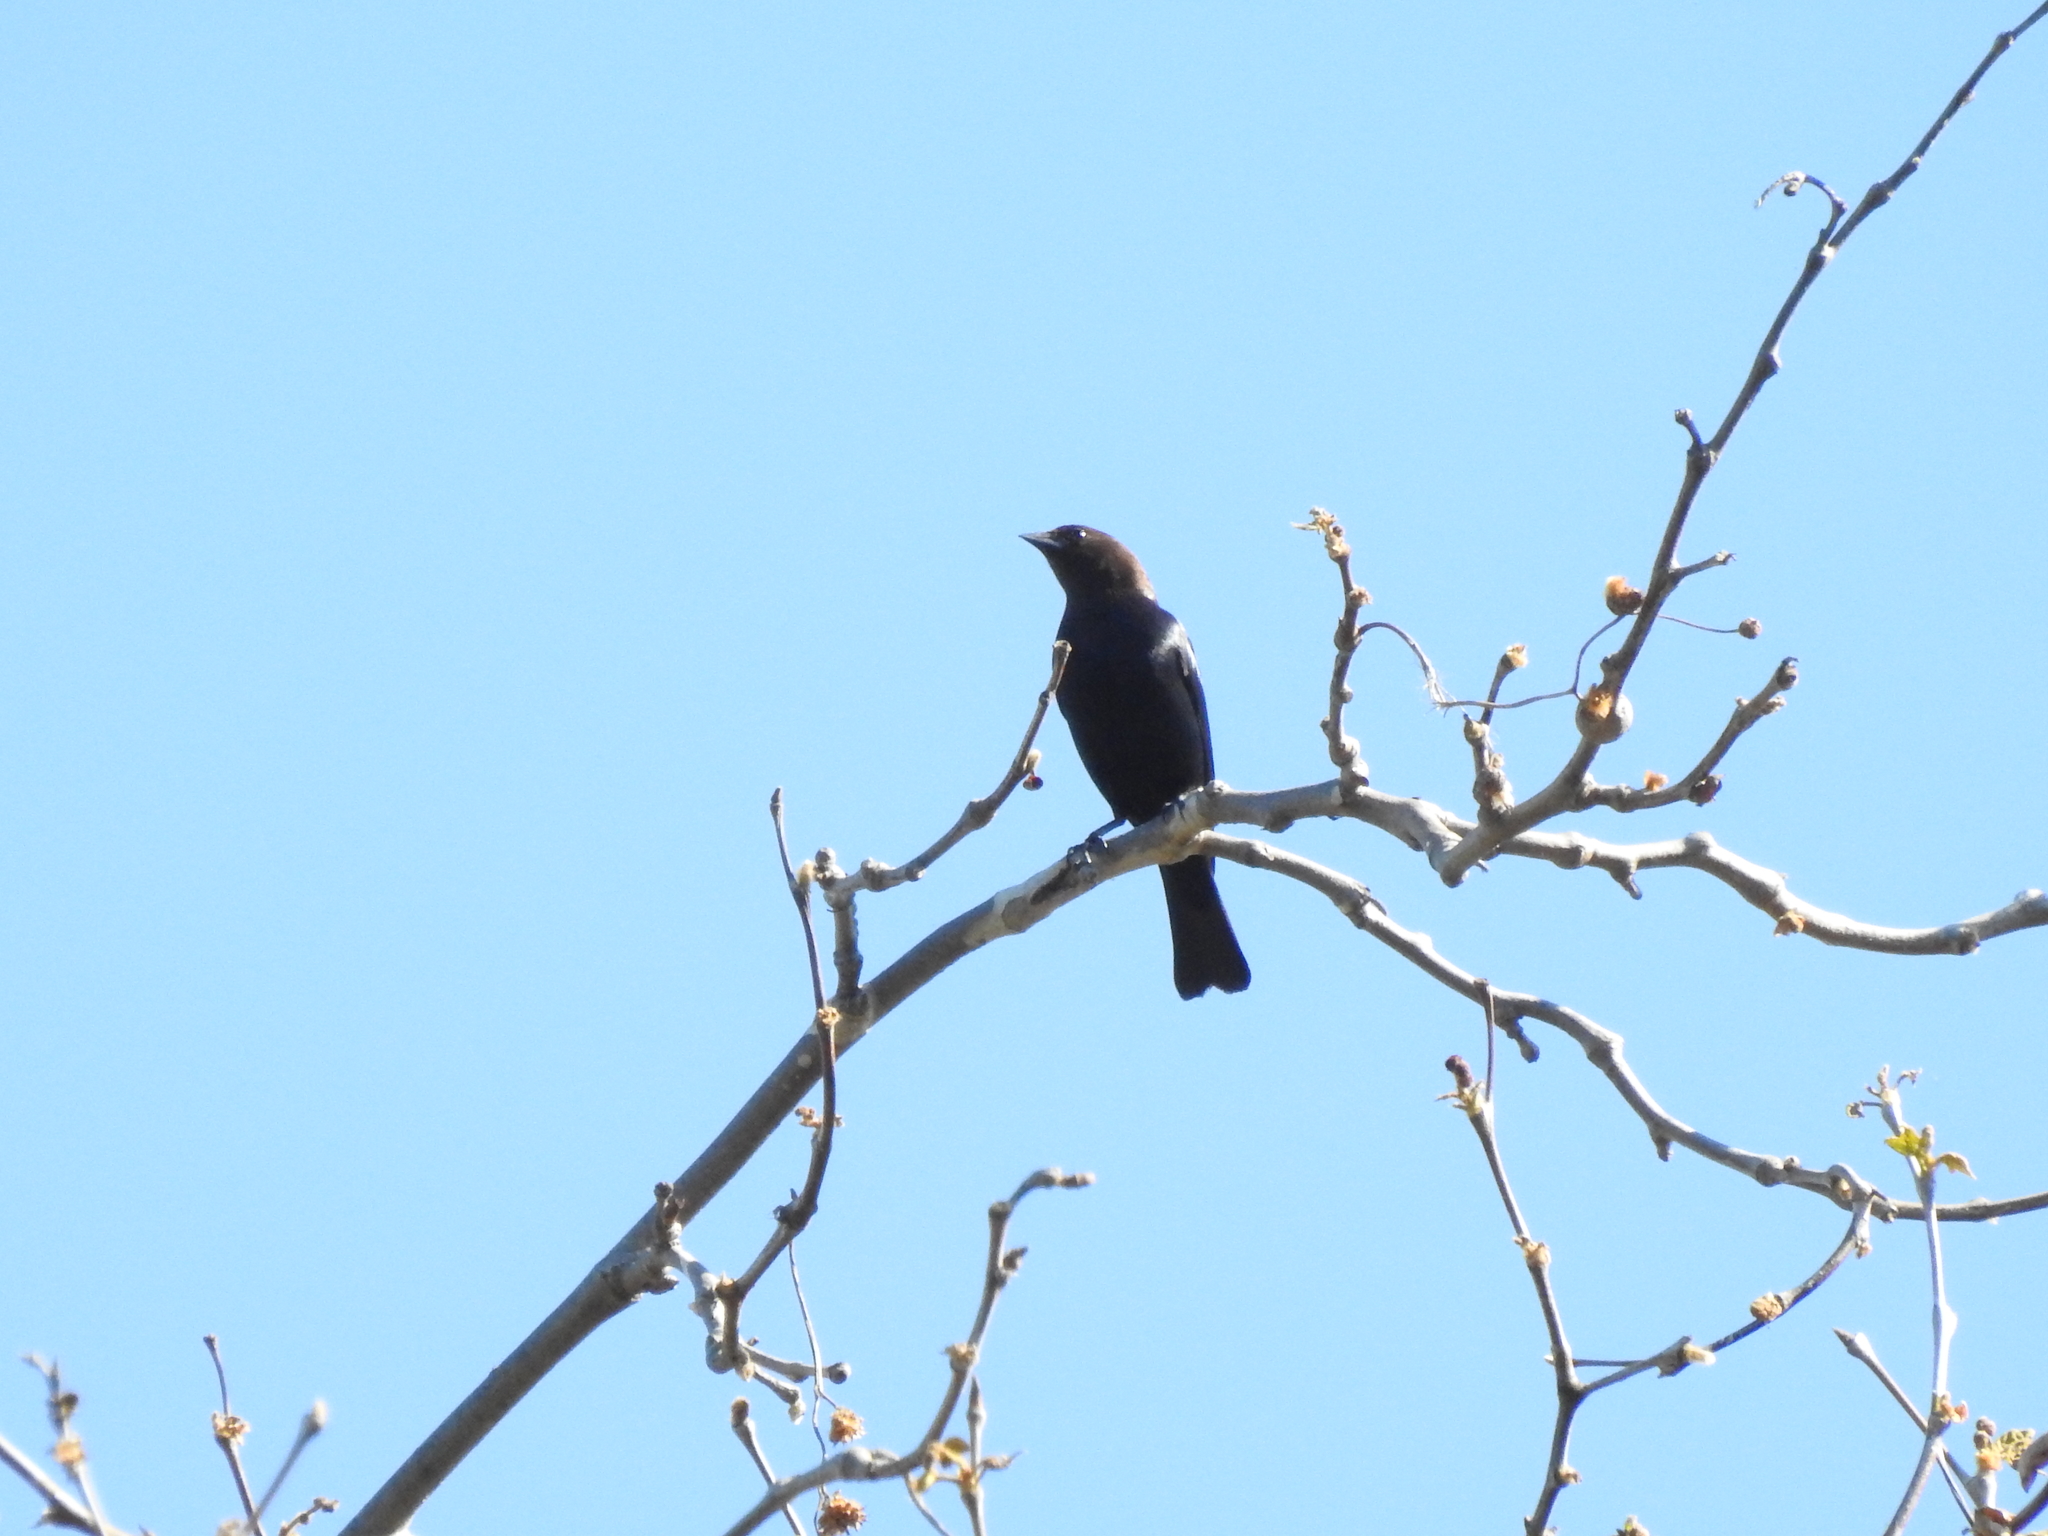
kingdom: Animalia
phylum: Chordata
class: Aves
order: Passeriformes
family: Icteridae
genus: Molothrus
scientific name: Molothrus ater
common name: Brown-headed cowbird
